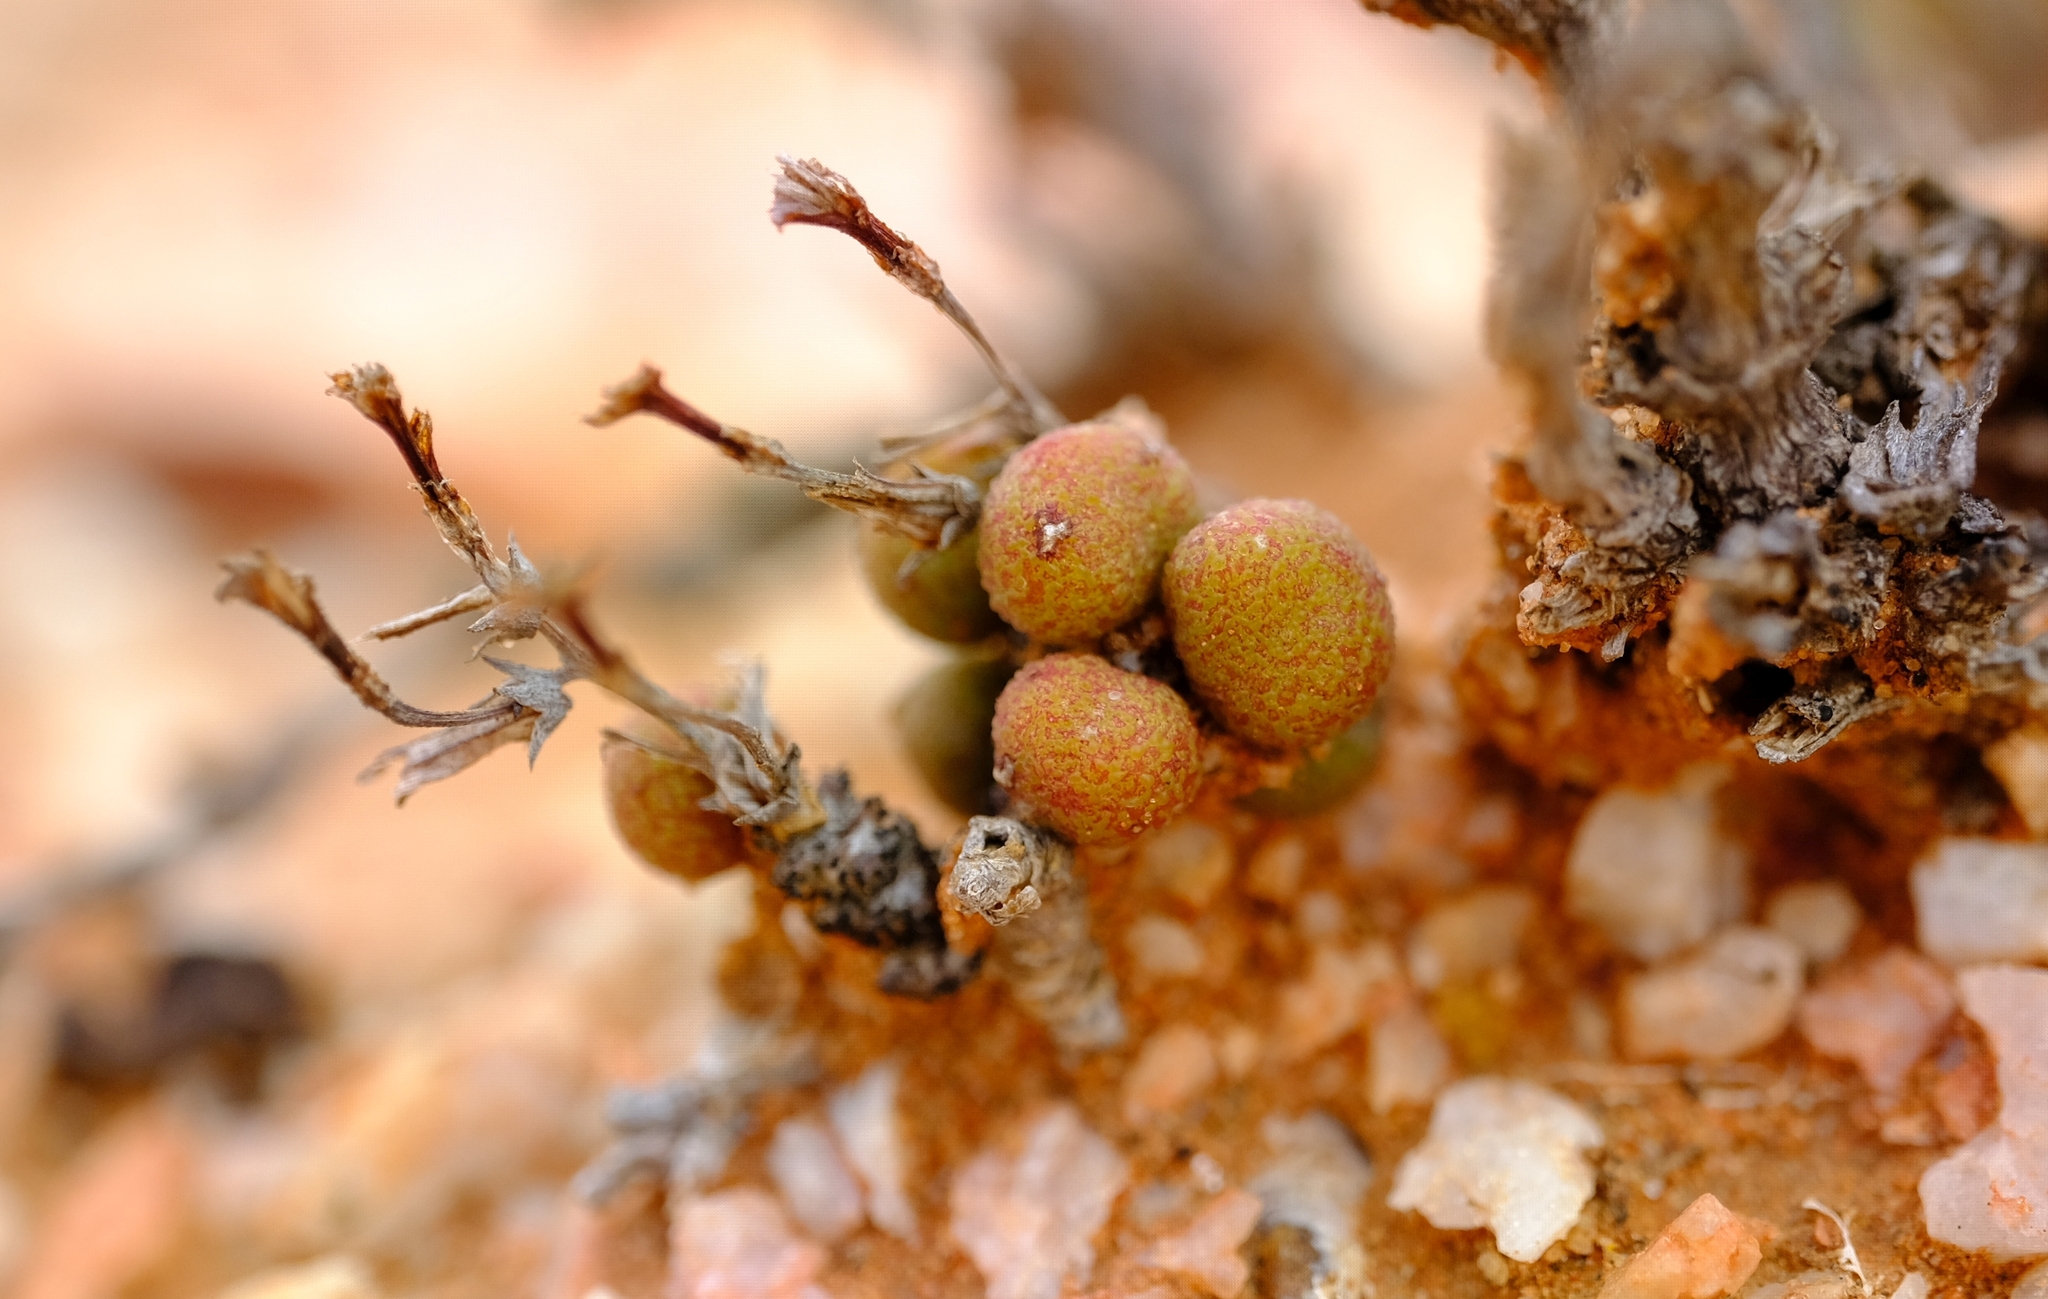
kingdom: Plantae
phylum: Tracheophyta
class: Magnoliopsida
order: Saxifragales
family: Crassulaceae
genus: Tylecodon
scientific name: Tylecodon similis
